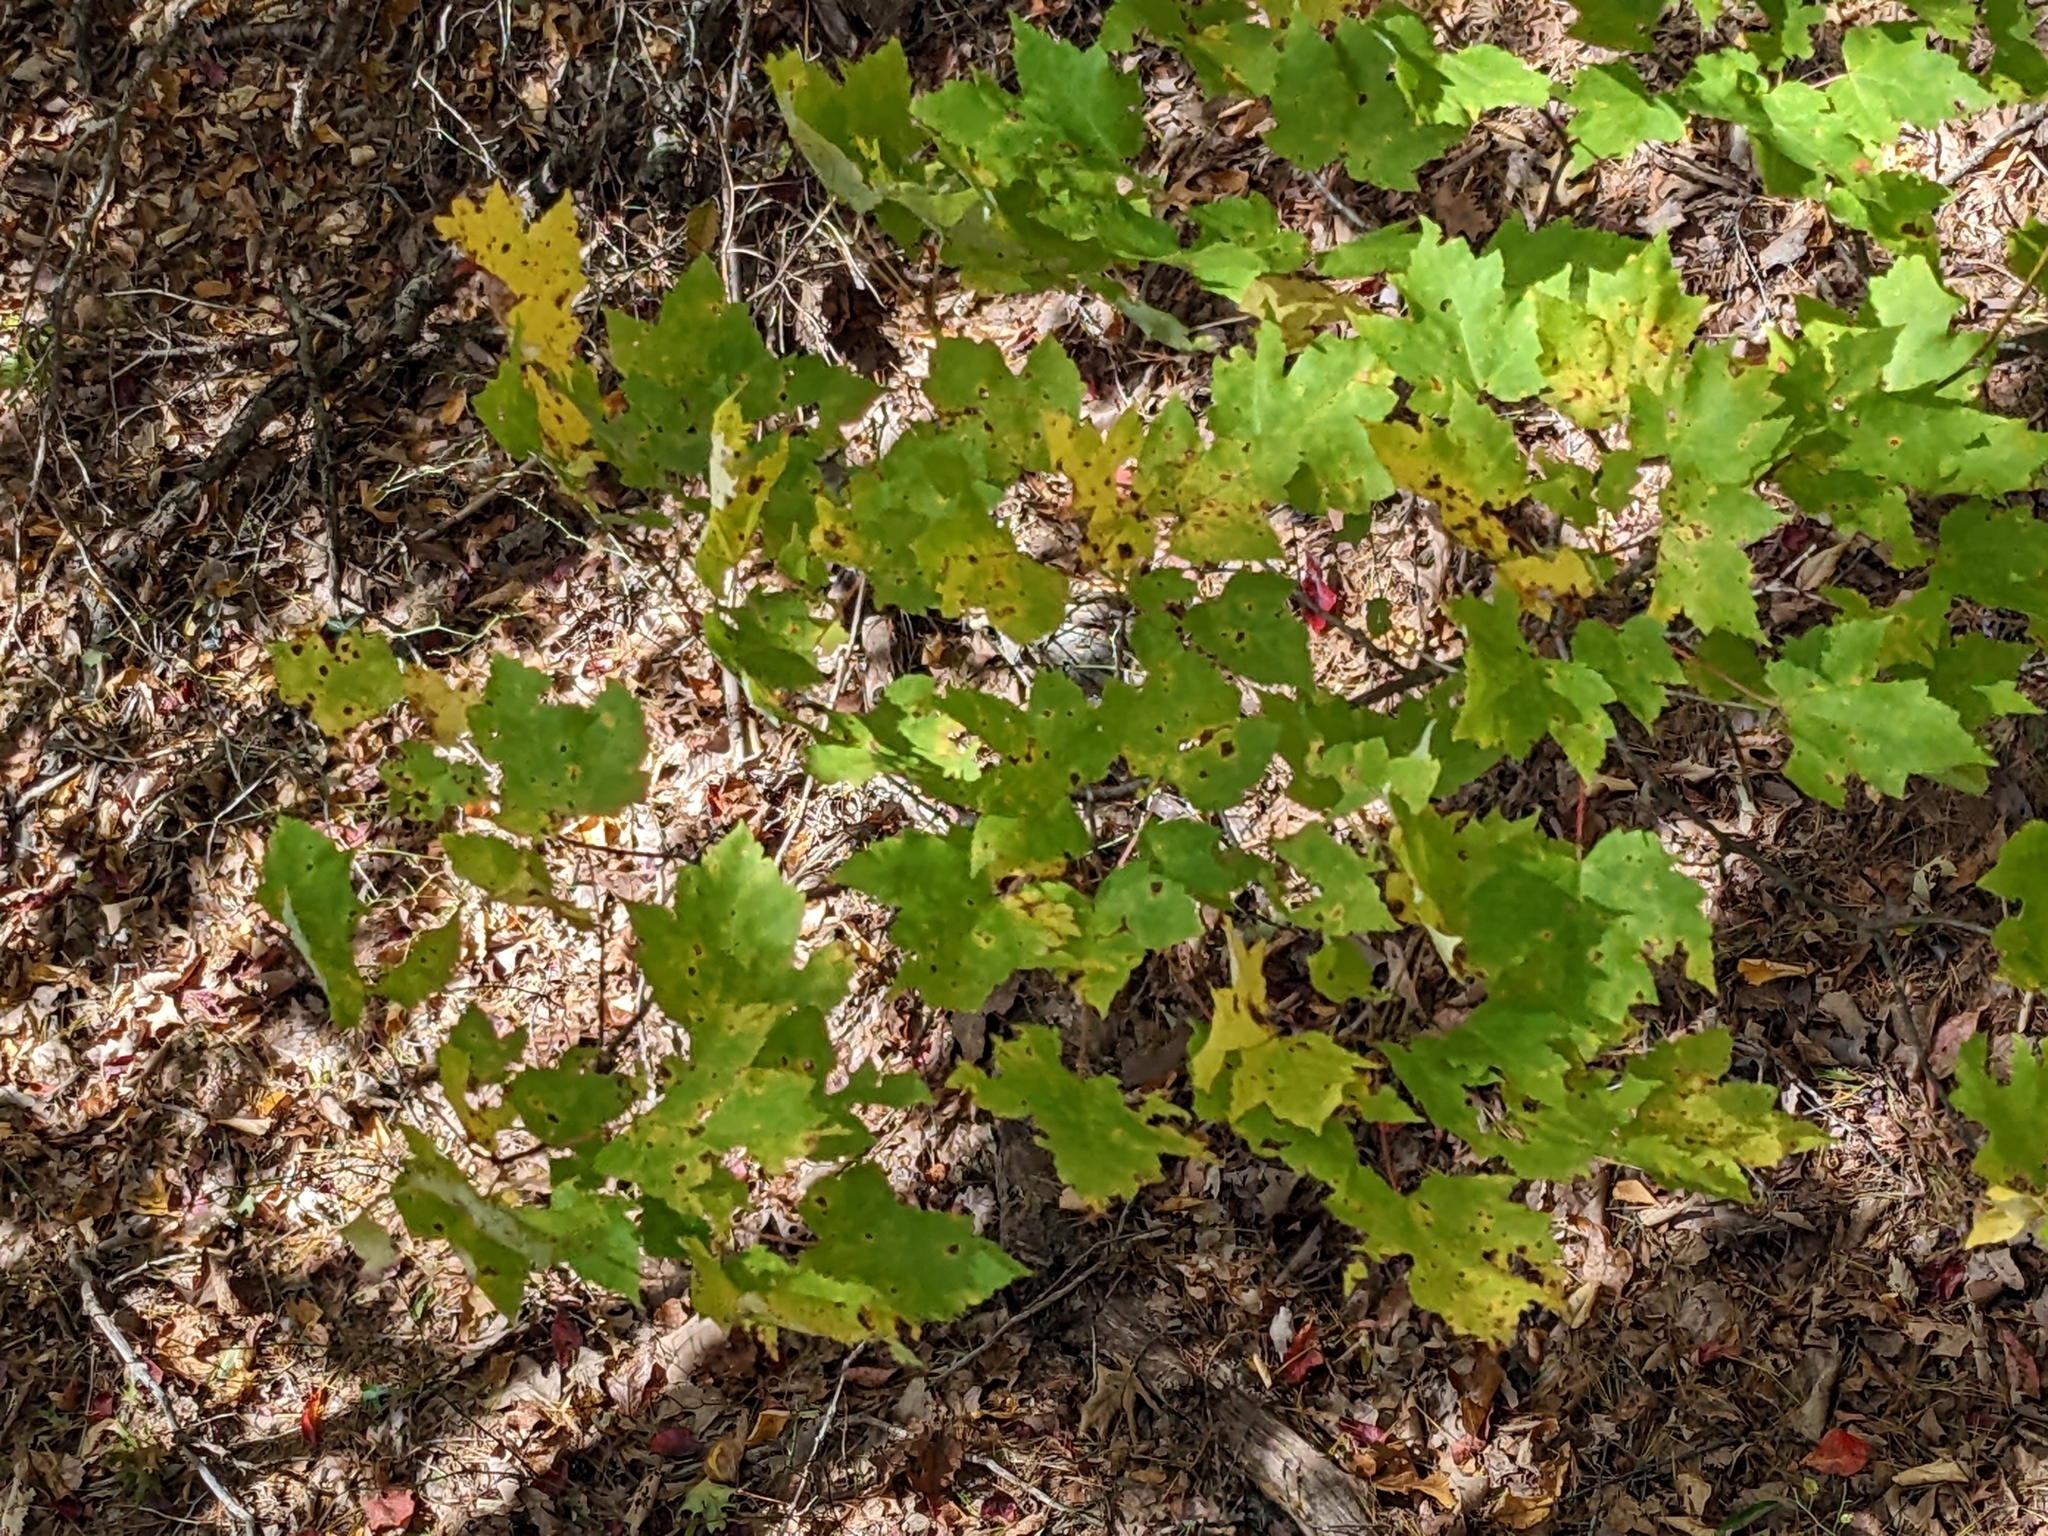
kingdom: Plantae
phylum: Tracheophyta
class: Magnoliopsida
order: Sapindales
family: Sapindaceae
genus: Acer
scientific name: Acer rubrum
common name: Red maple
